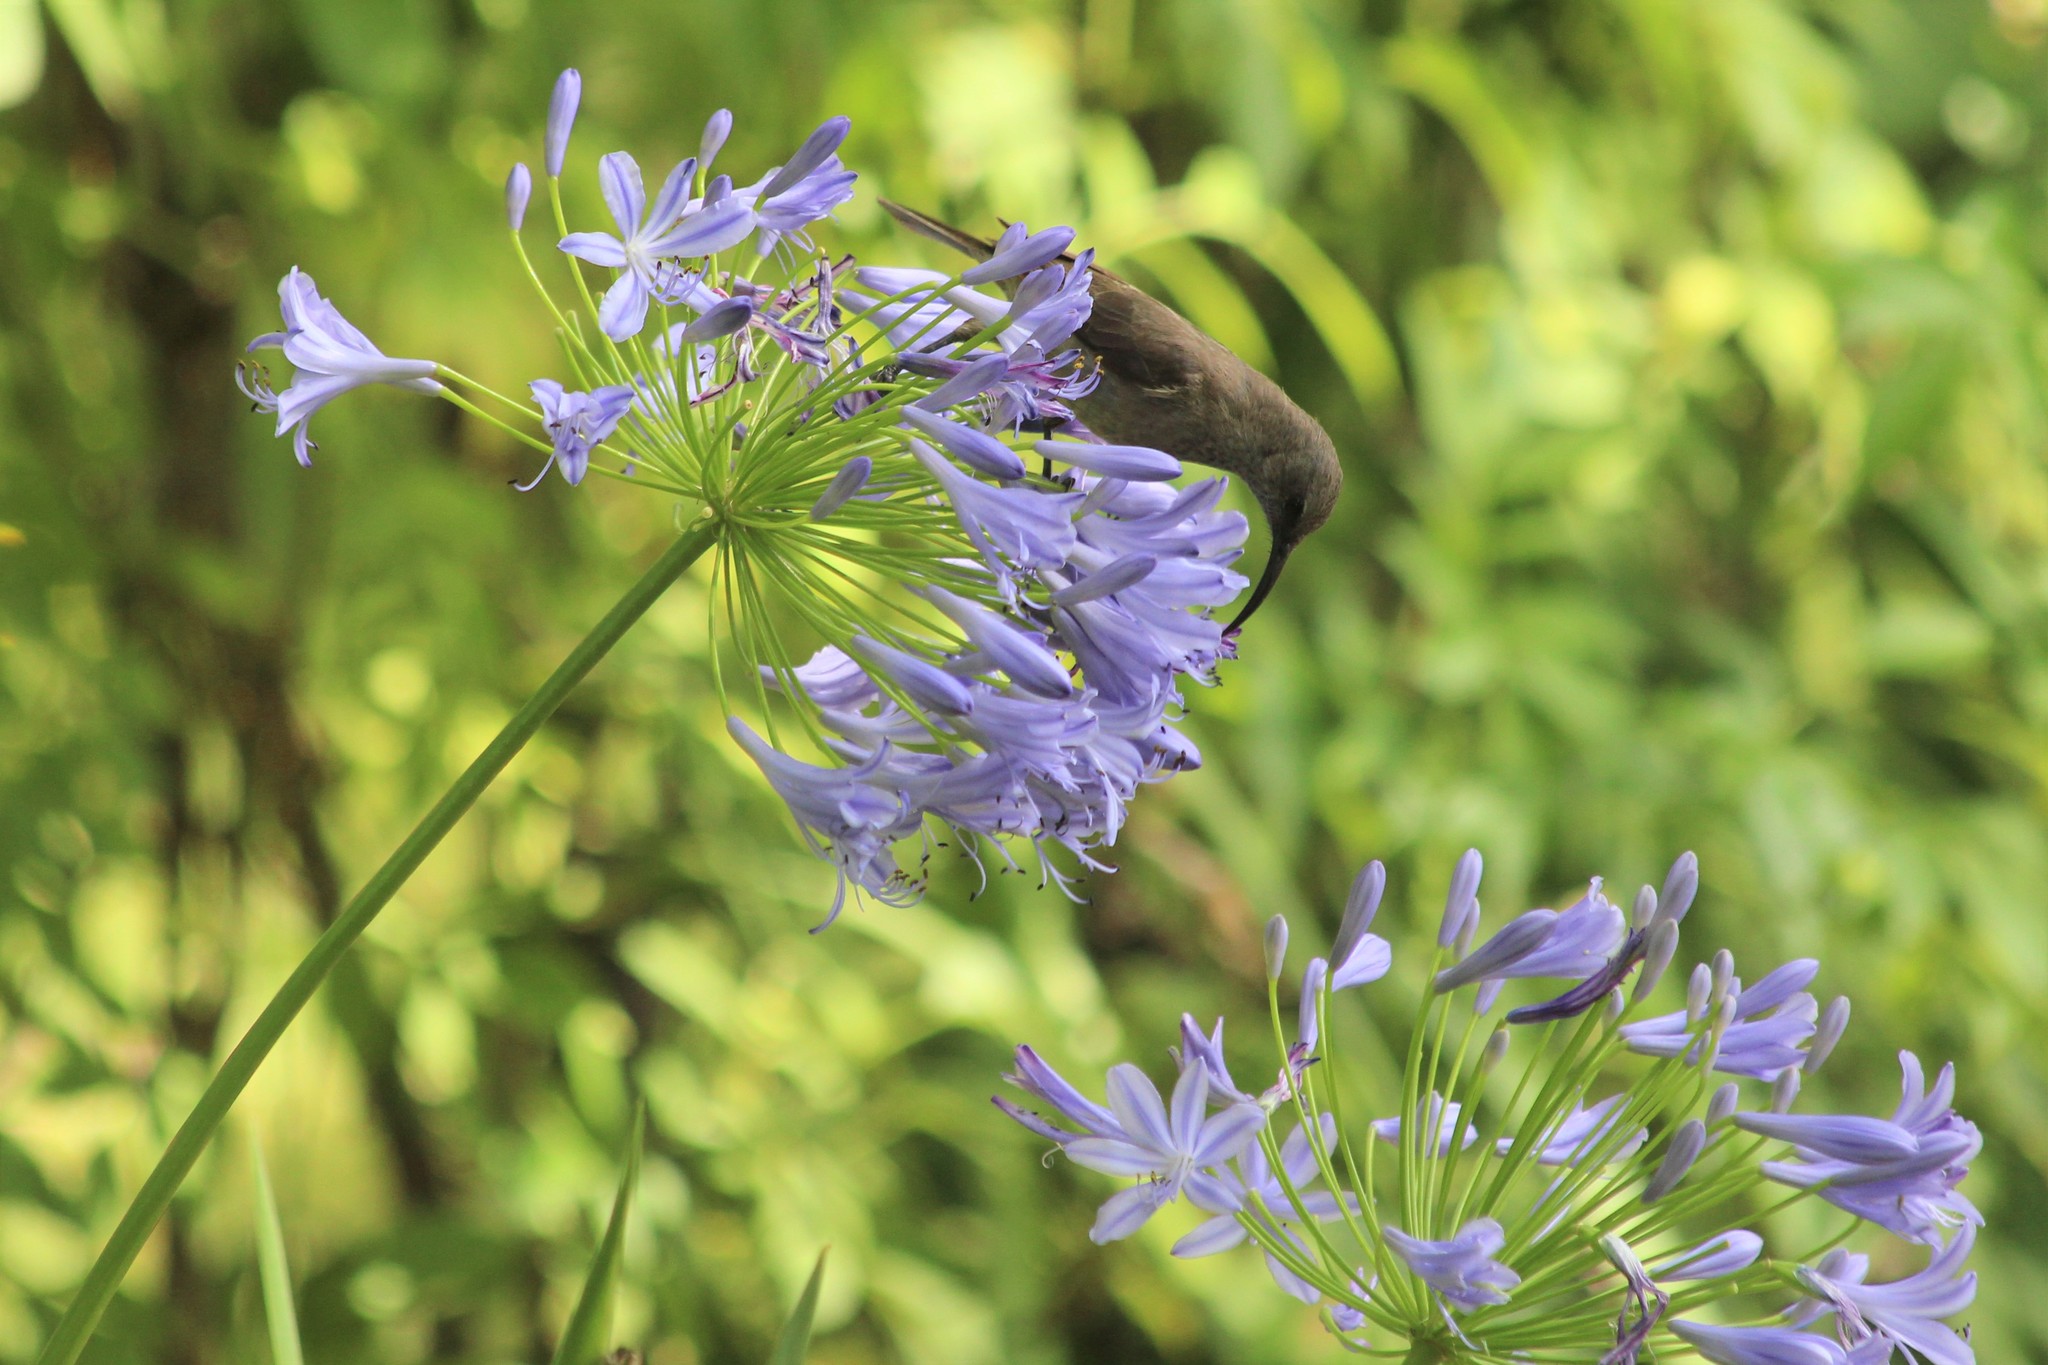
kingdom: Animalia
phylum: Chordata
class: Aves
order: Passeriformes
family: Nectariniidae
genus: Cinnyris
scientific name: Cinnyris afer
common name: Greater double-collared sunbird
